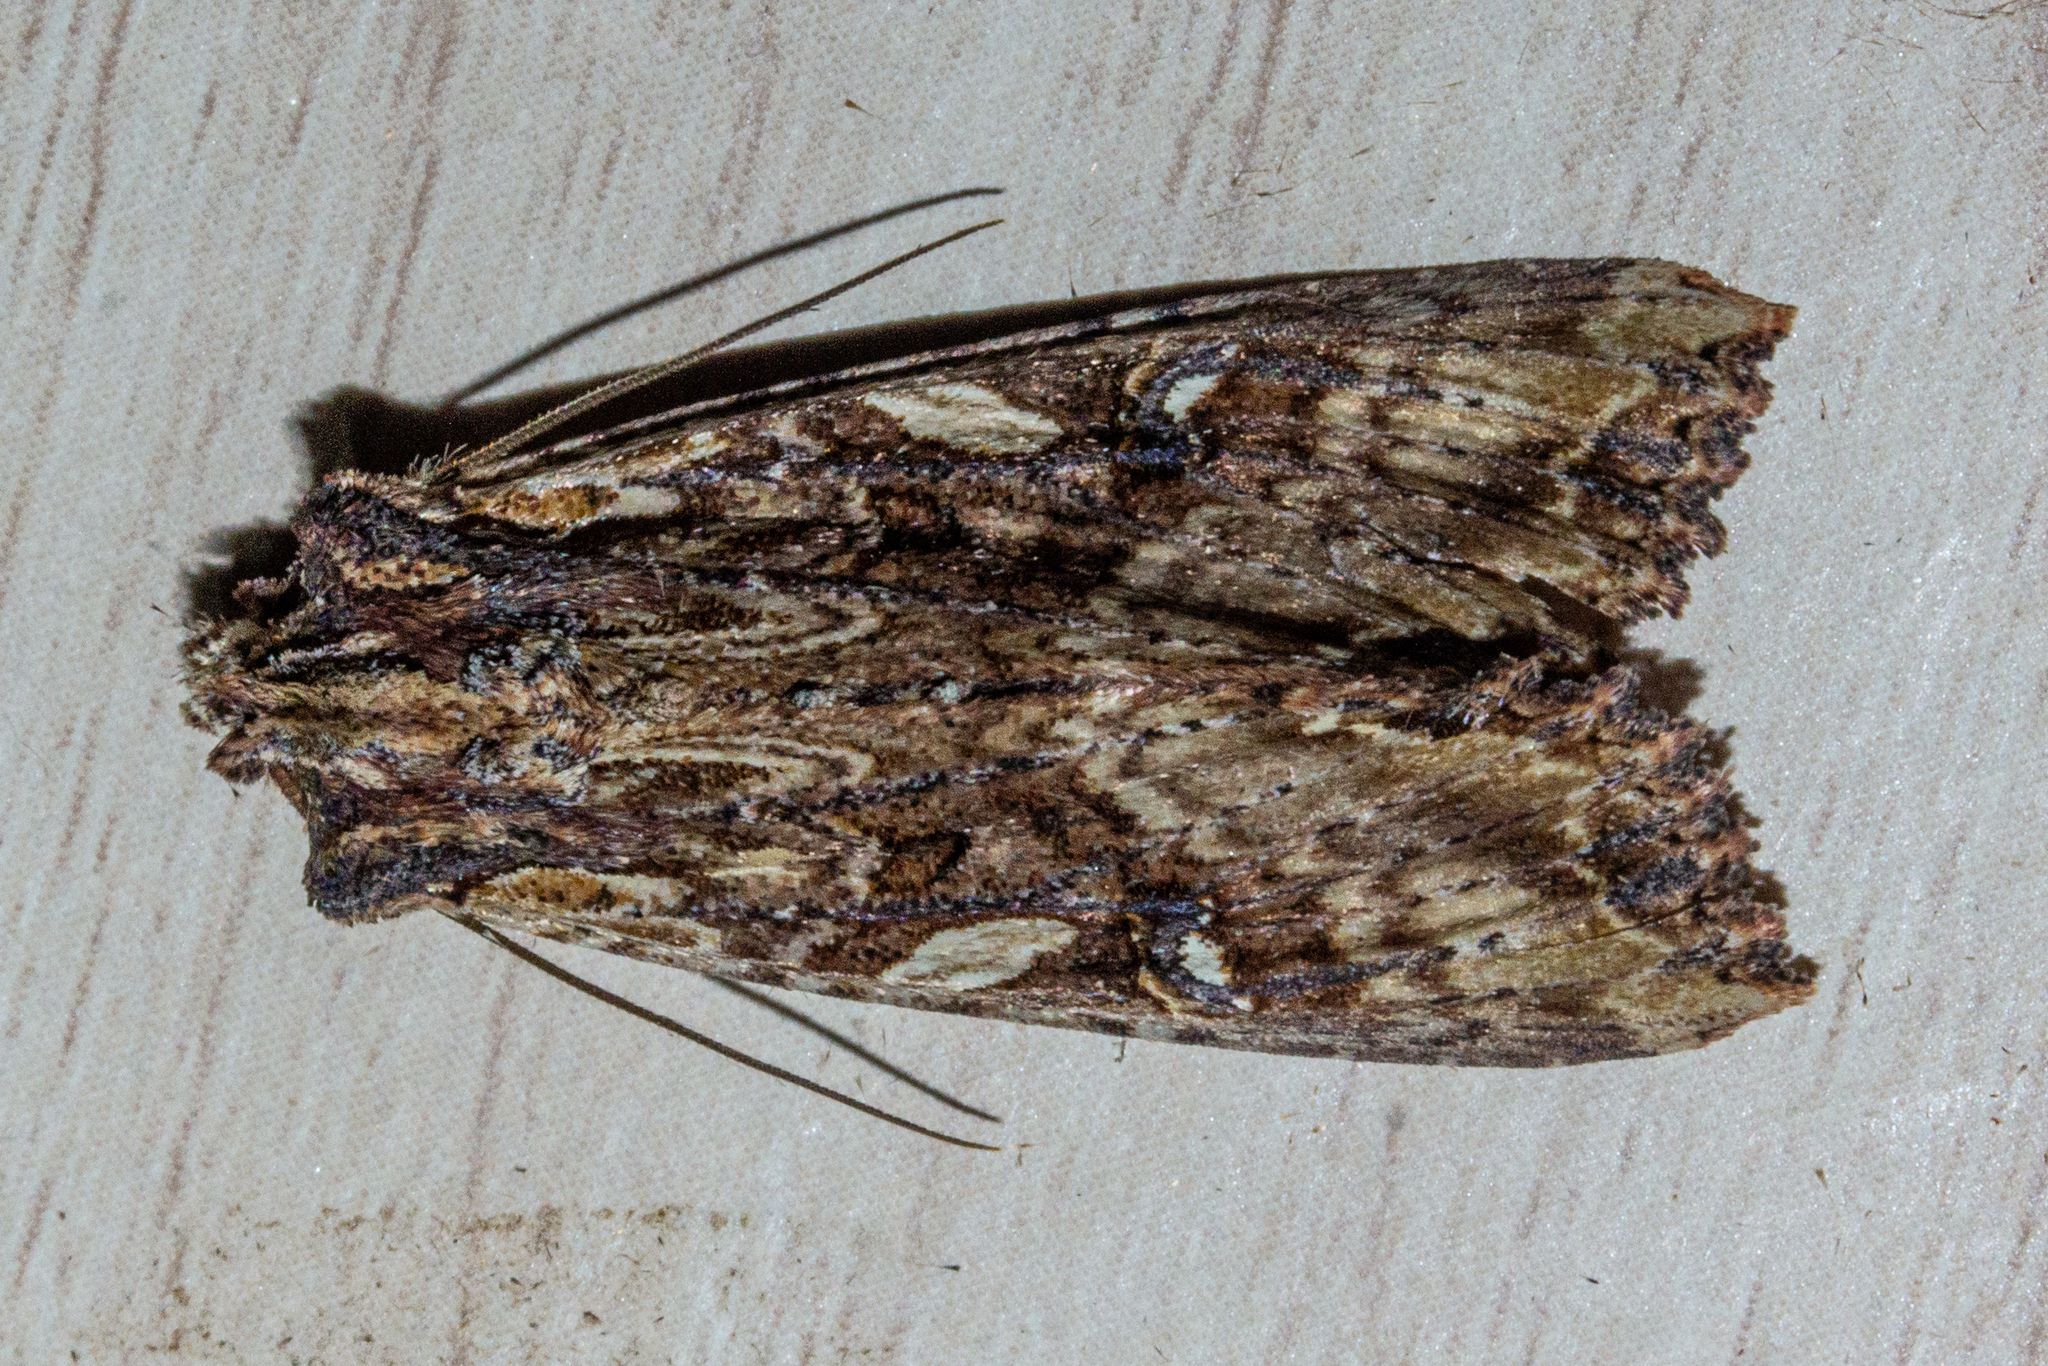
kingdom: Animalia
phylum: Arthropoda
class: Insecta
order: Lepidoptera
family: Noctuidae
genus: Meterana
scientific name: Meterana stipata
